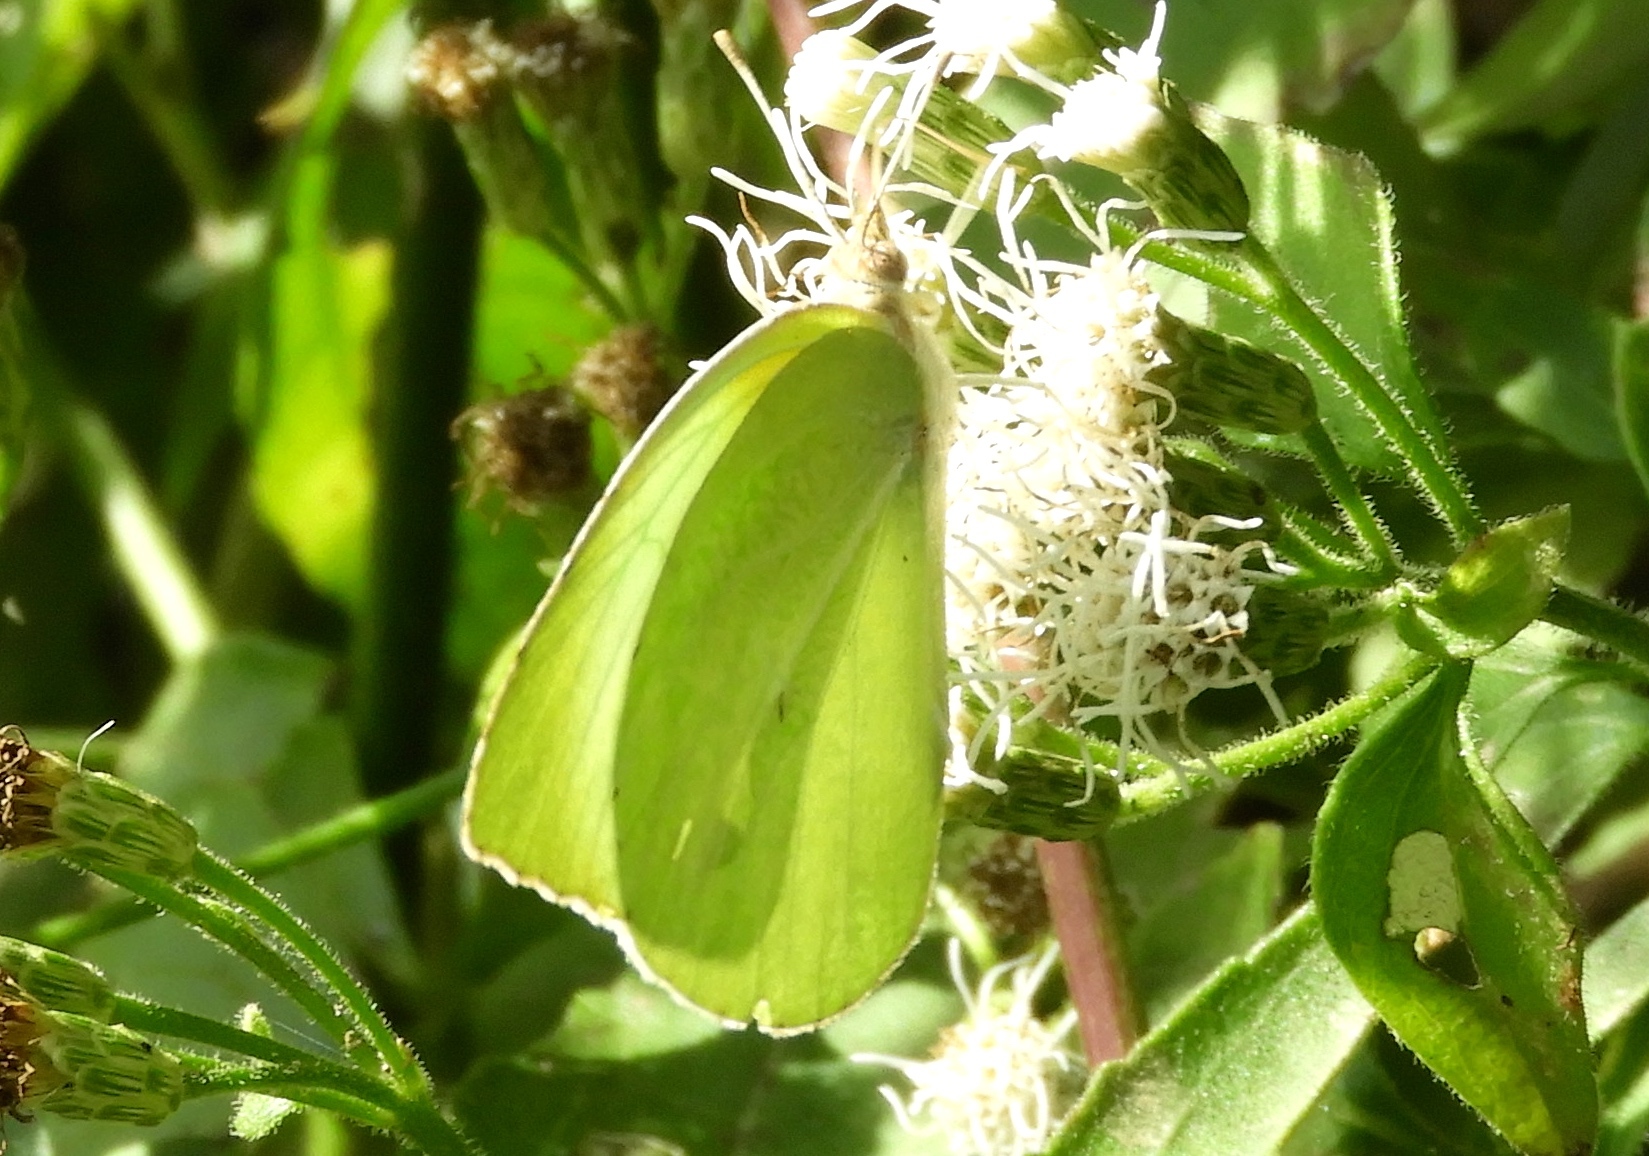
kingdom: Animalia
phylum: Arthropoda
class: Insecta
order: Lepidoptera
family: Pieridae
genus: Kricogonia
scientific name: Kricogonia lyside
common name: Guayacan sulphur,
